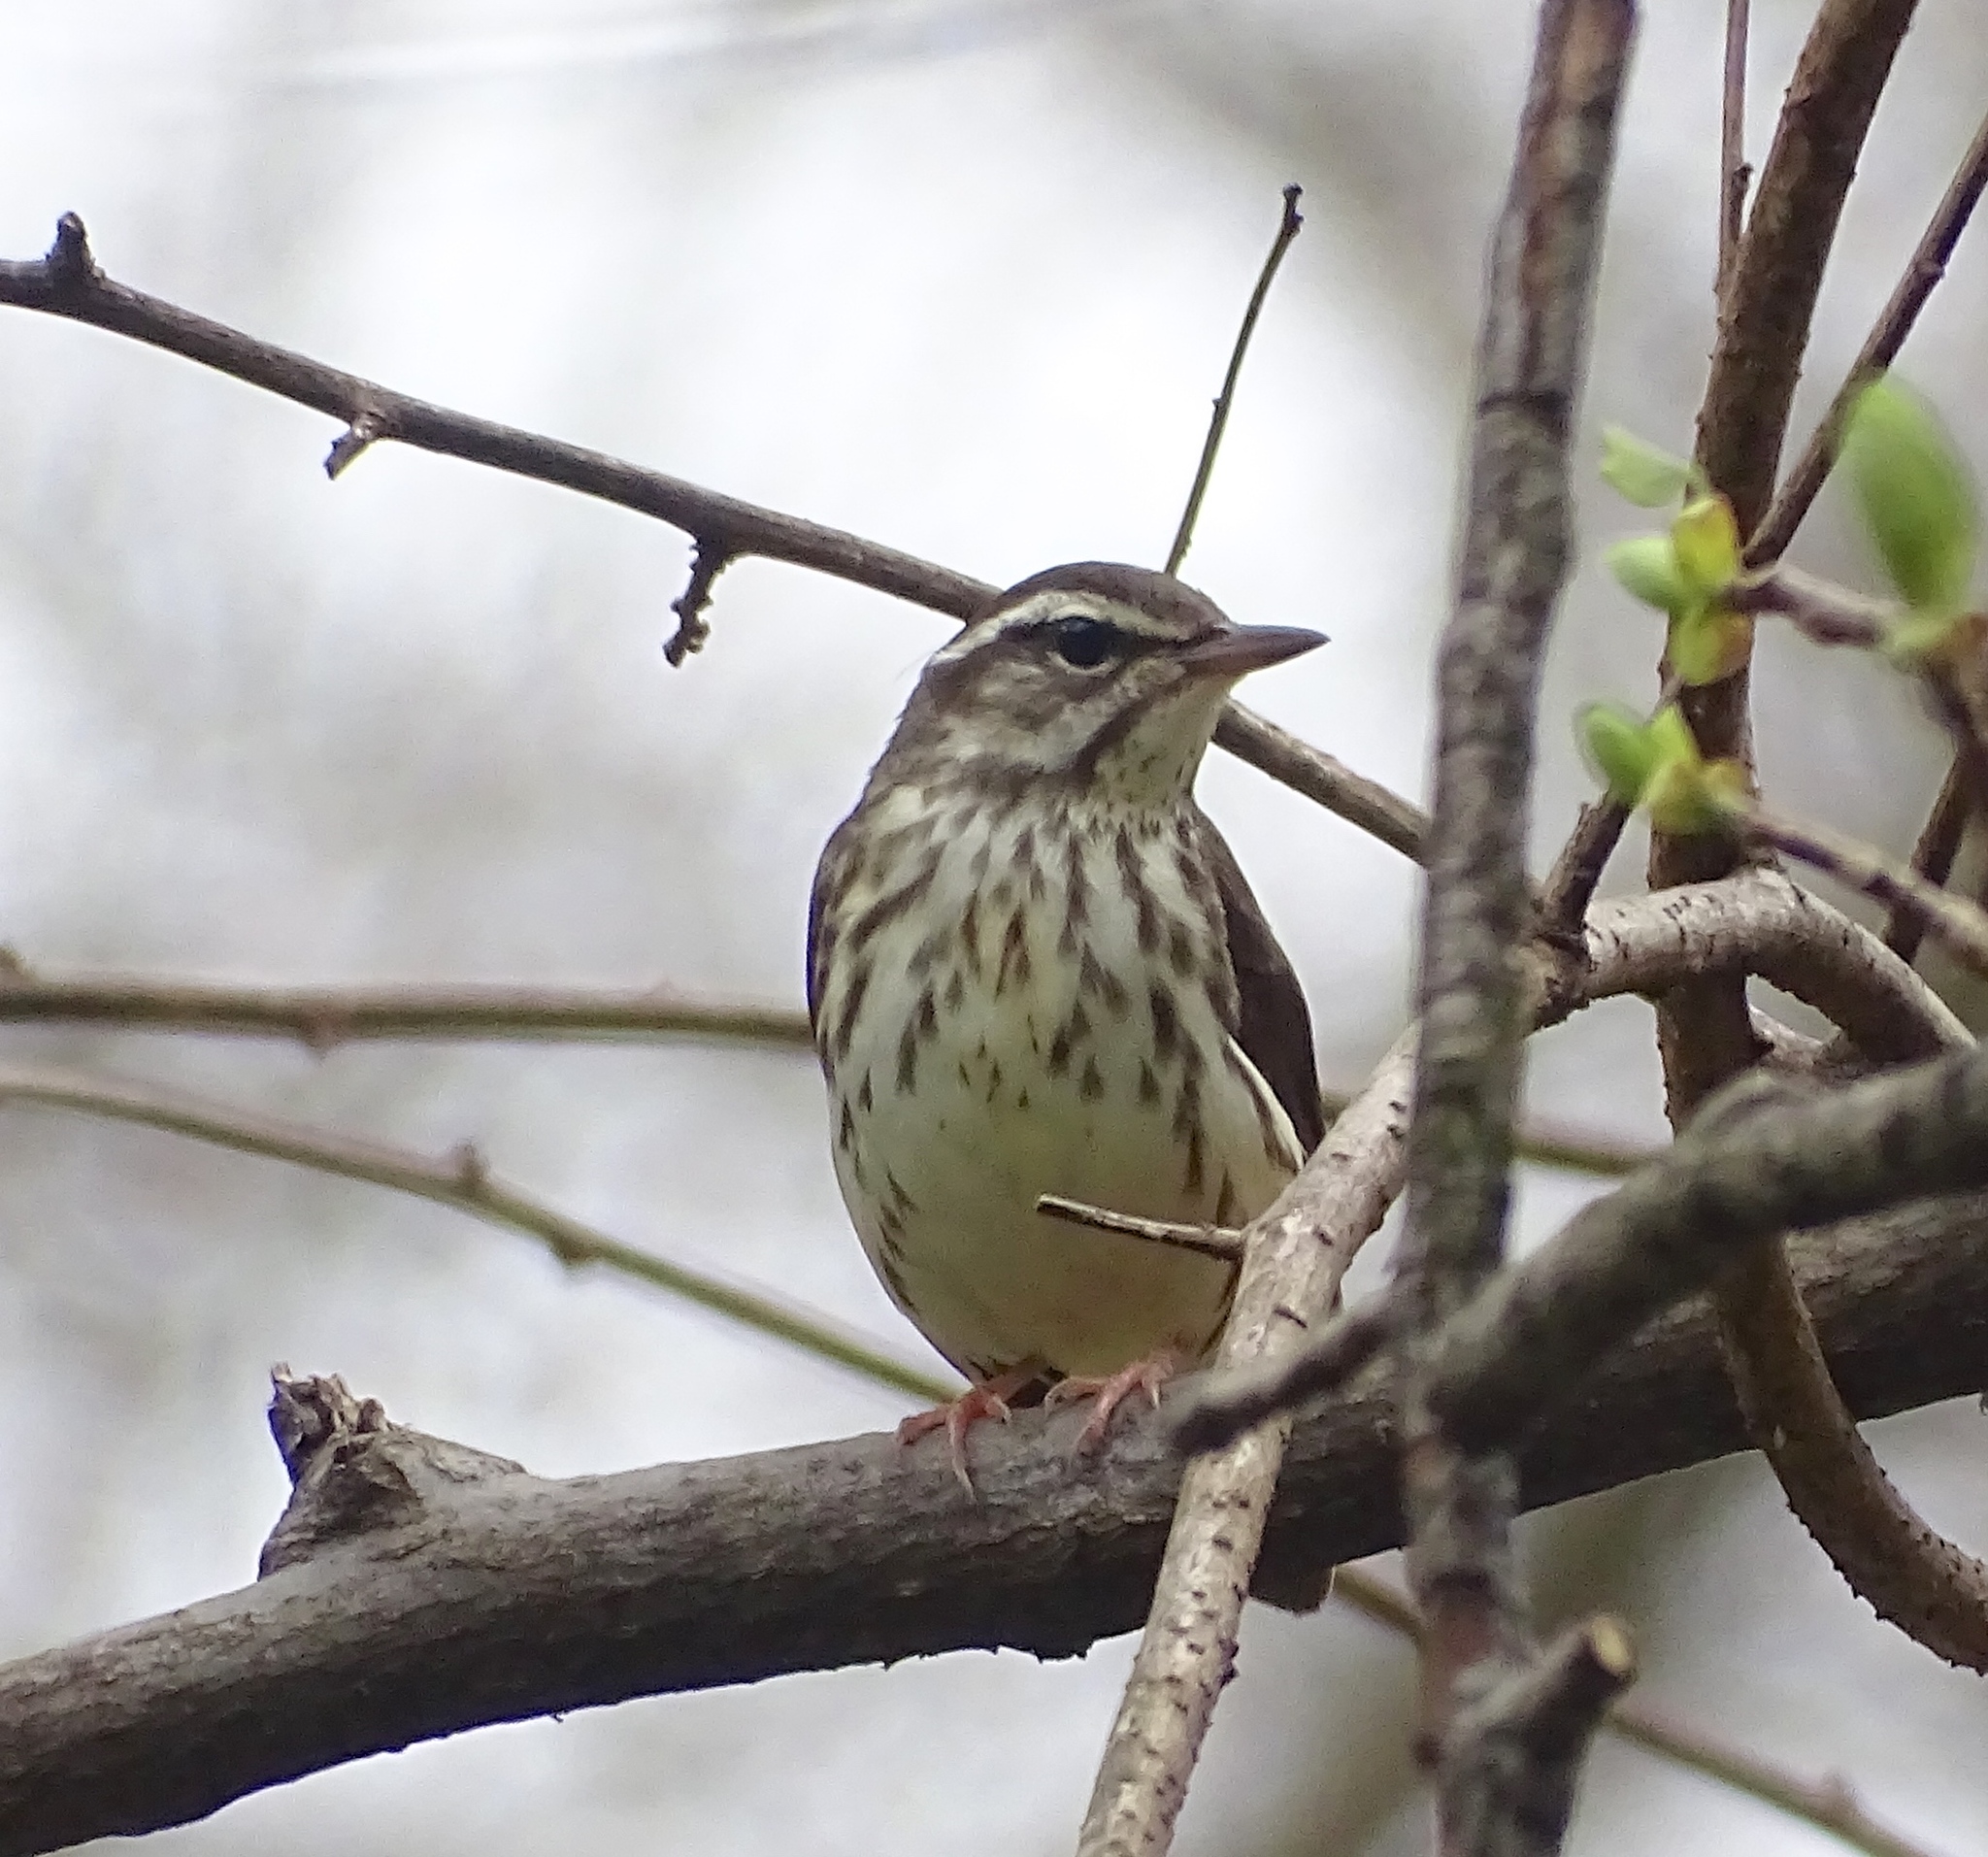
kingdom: Animalia
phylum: Chordata
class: Aves
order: Passeriformes
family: Parulidae
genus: Parkesia
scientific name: Parkesia motacilla
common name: Louisiana waterthrush
